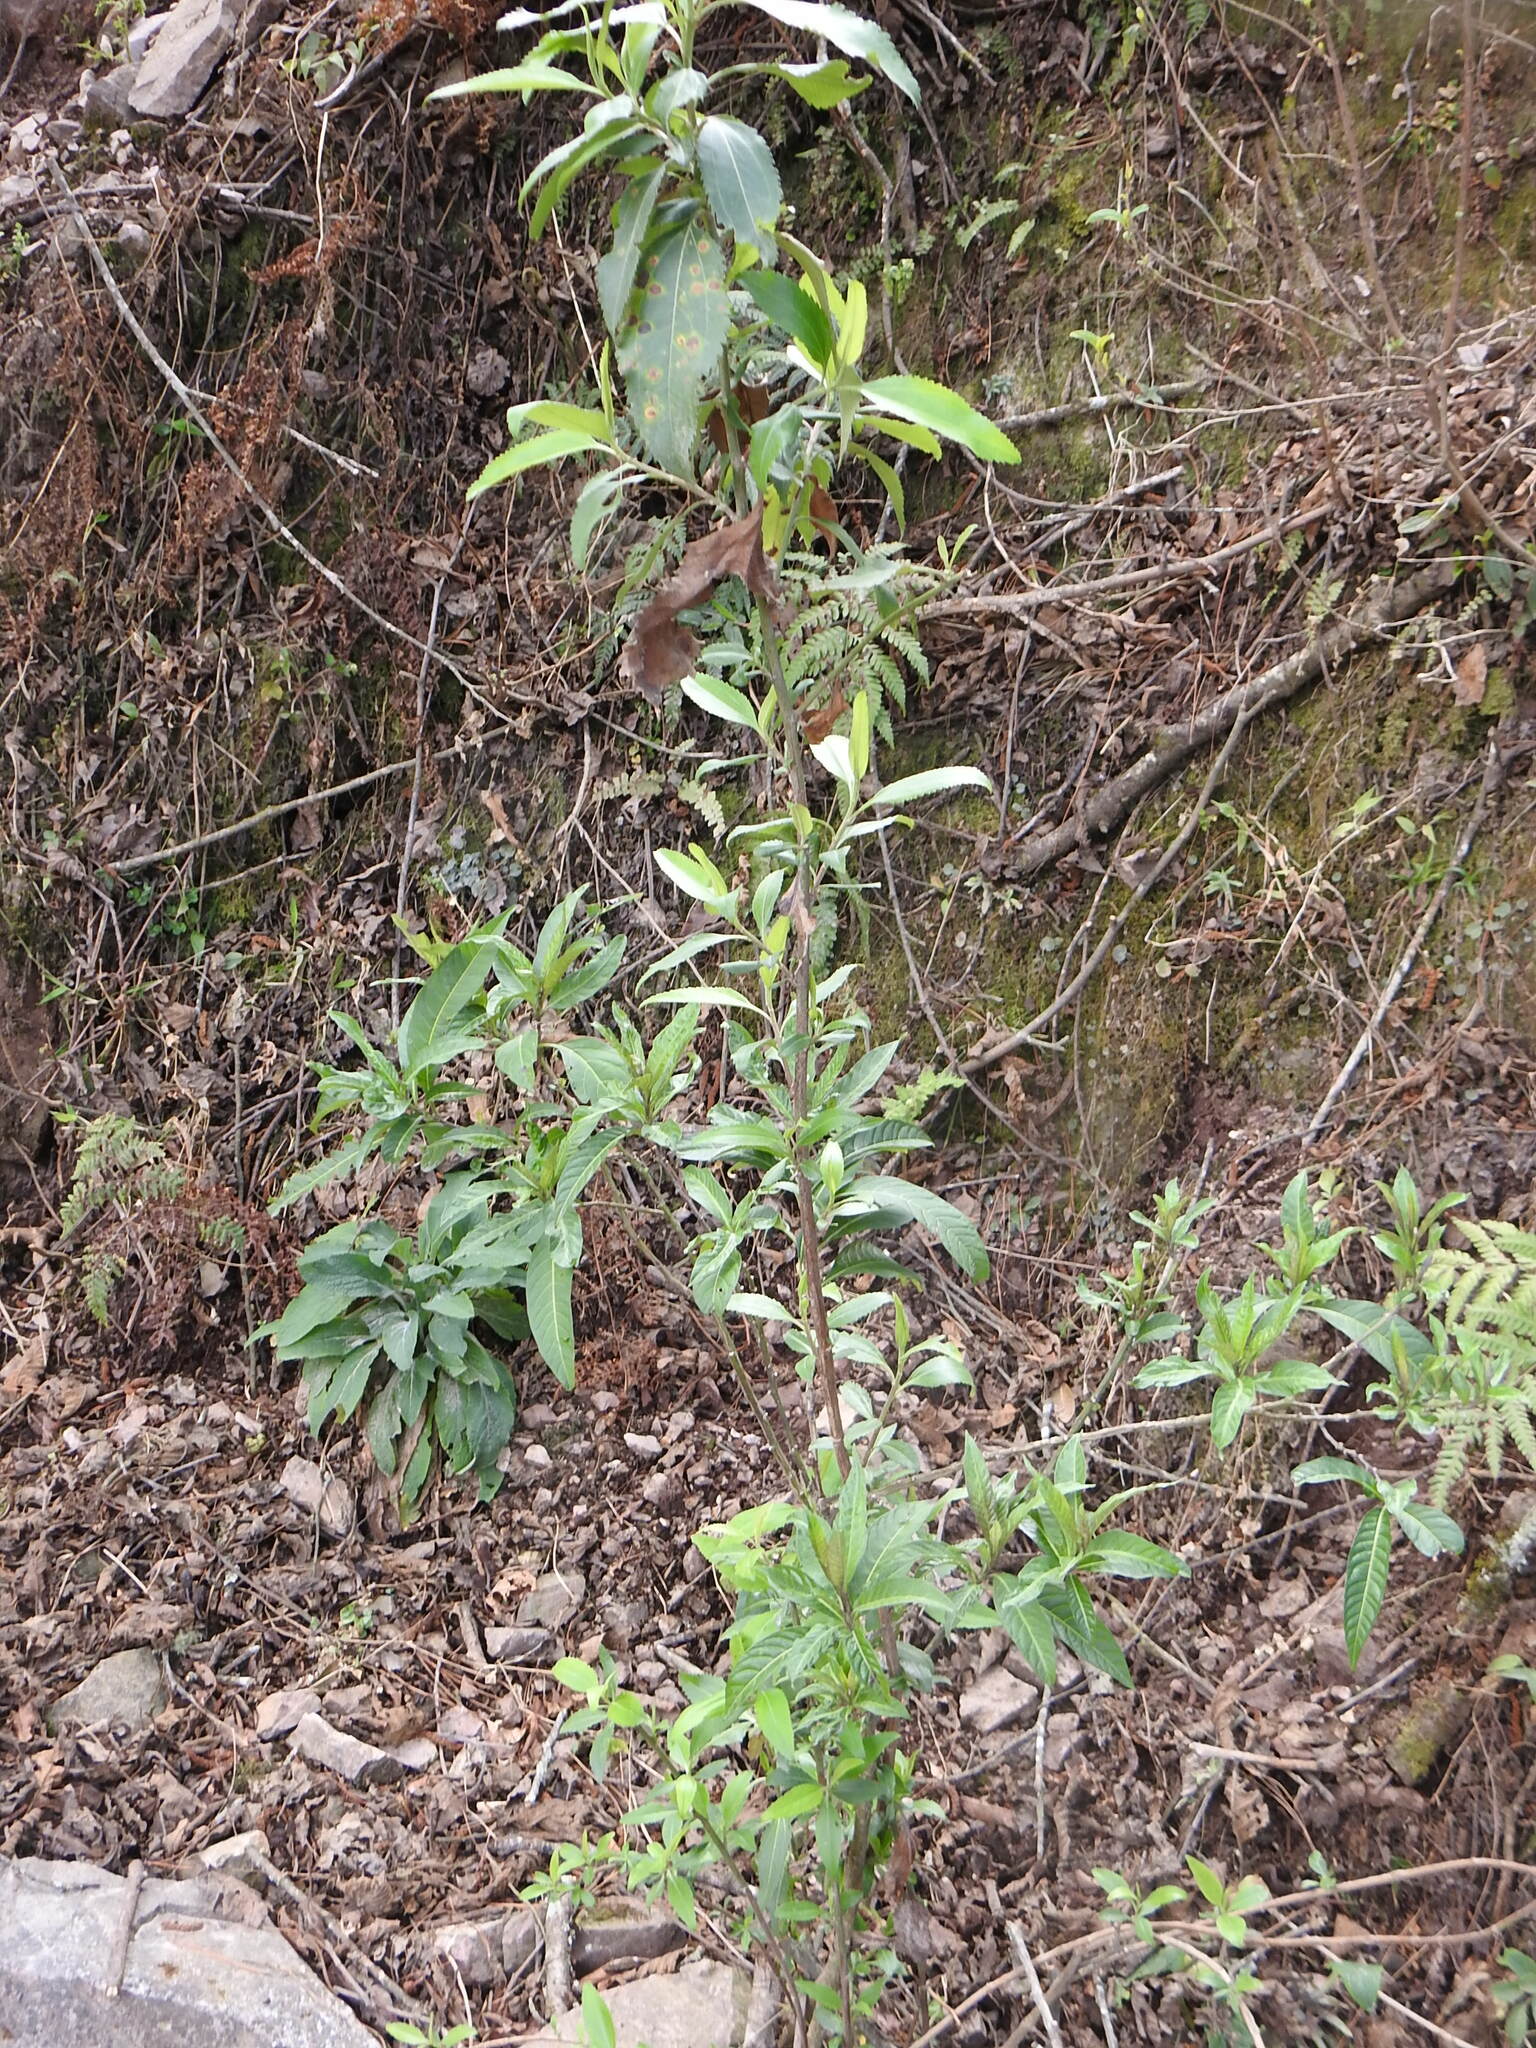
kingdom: Plantae
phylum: Tracheophyta
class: Magnoliopsida
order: Asterales
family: Asteraceae
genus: Baccharis
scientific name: Baccharis latifolia
